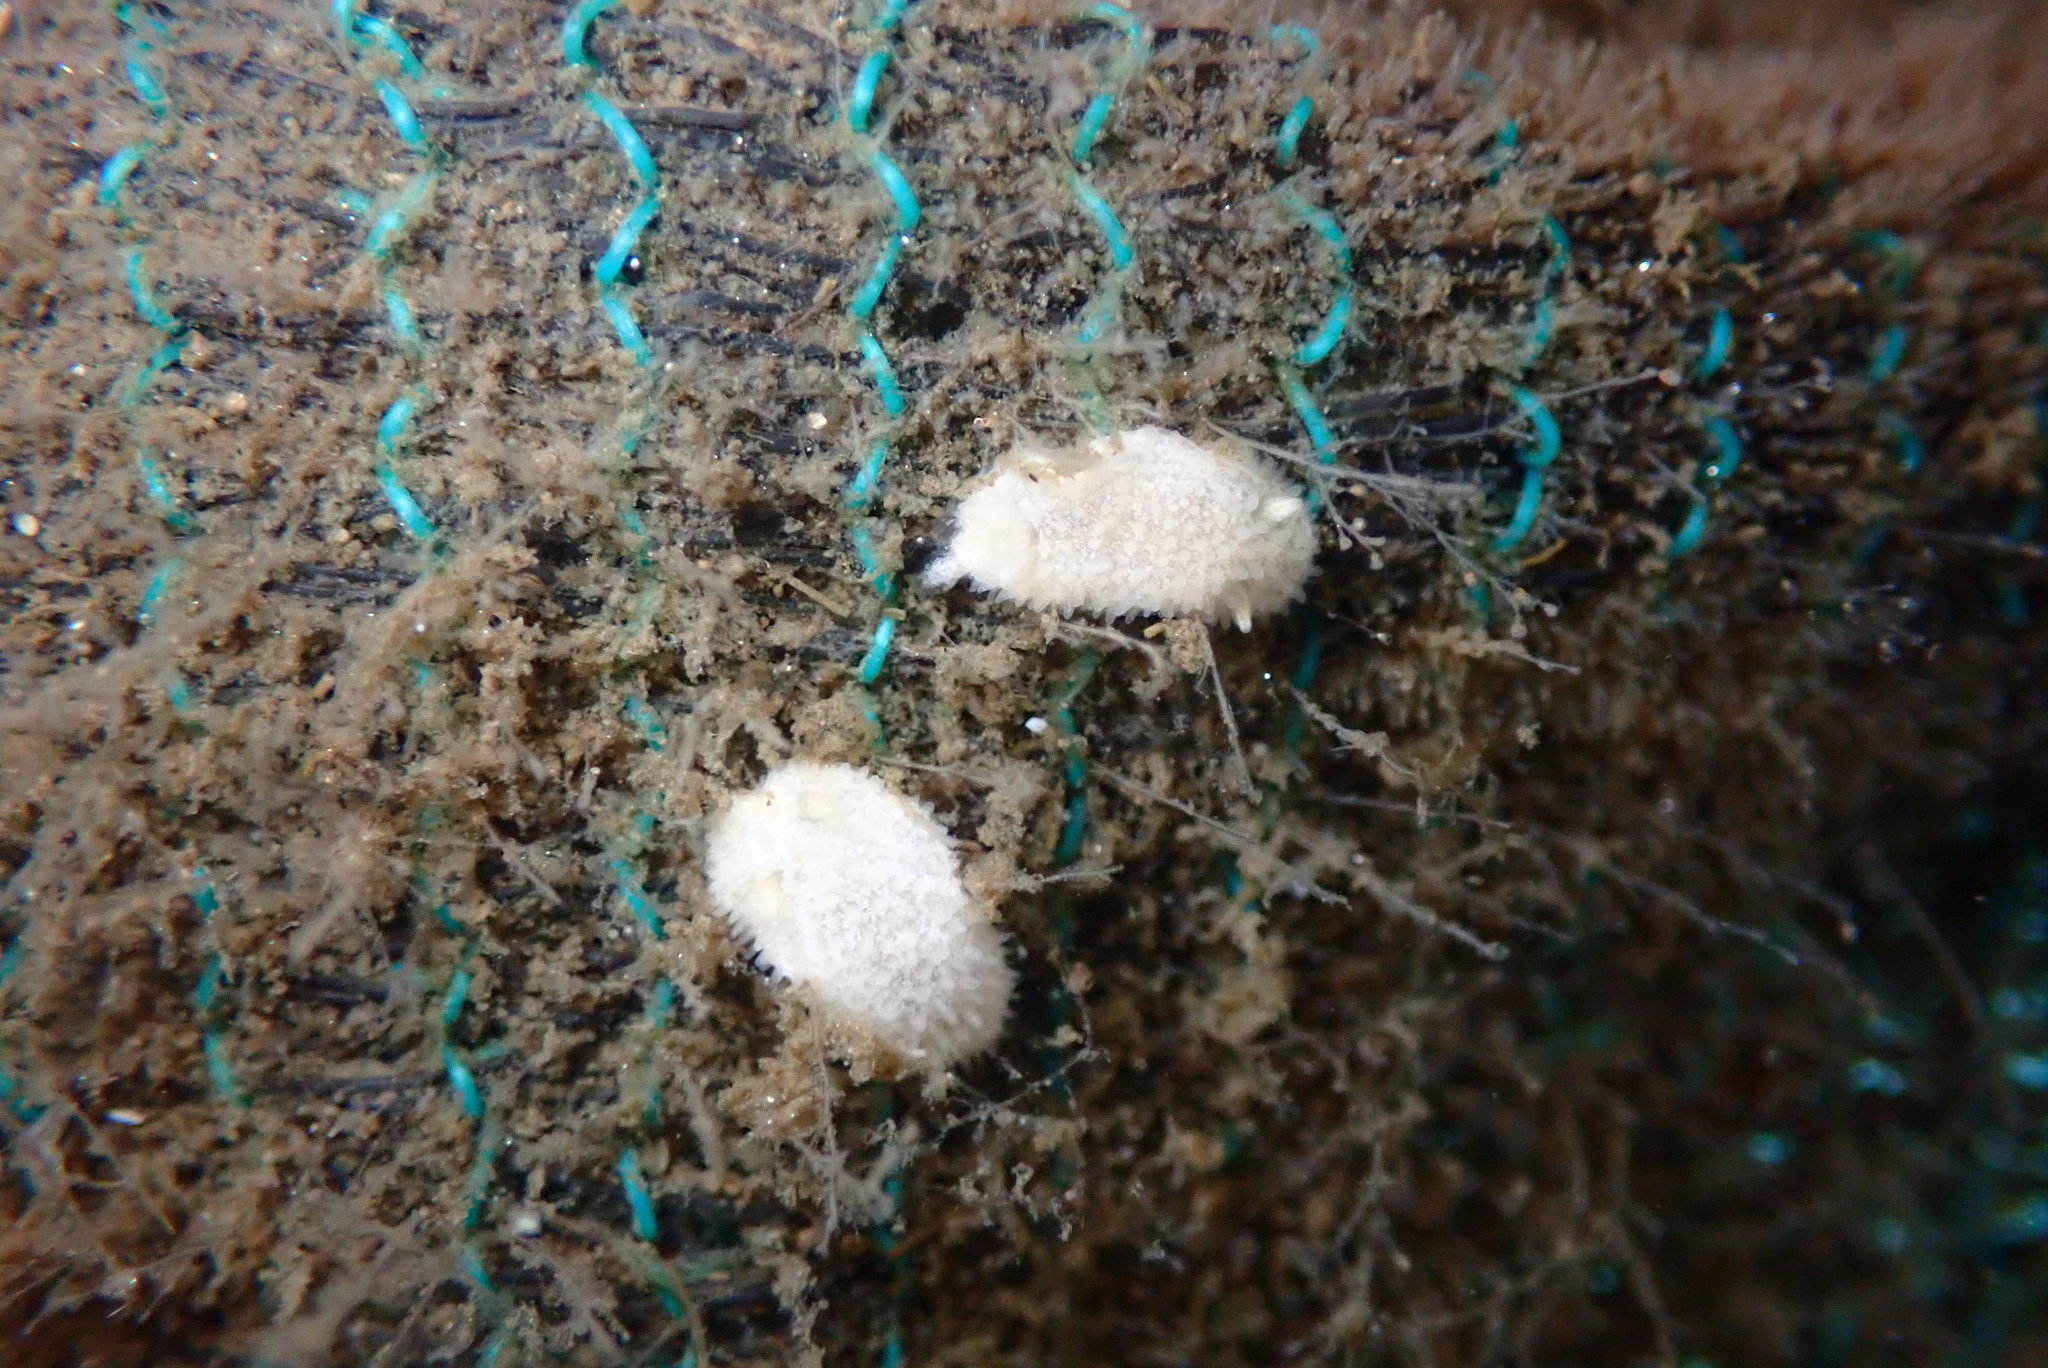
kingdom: Animalia
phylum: Mollusca
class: Gastropoda
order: Nudibranchia
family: Calycidorididae
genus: Diaphorodoris
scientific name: Diaphorodoris lirulatocauda
